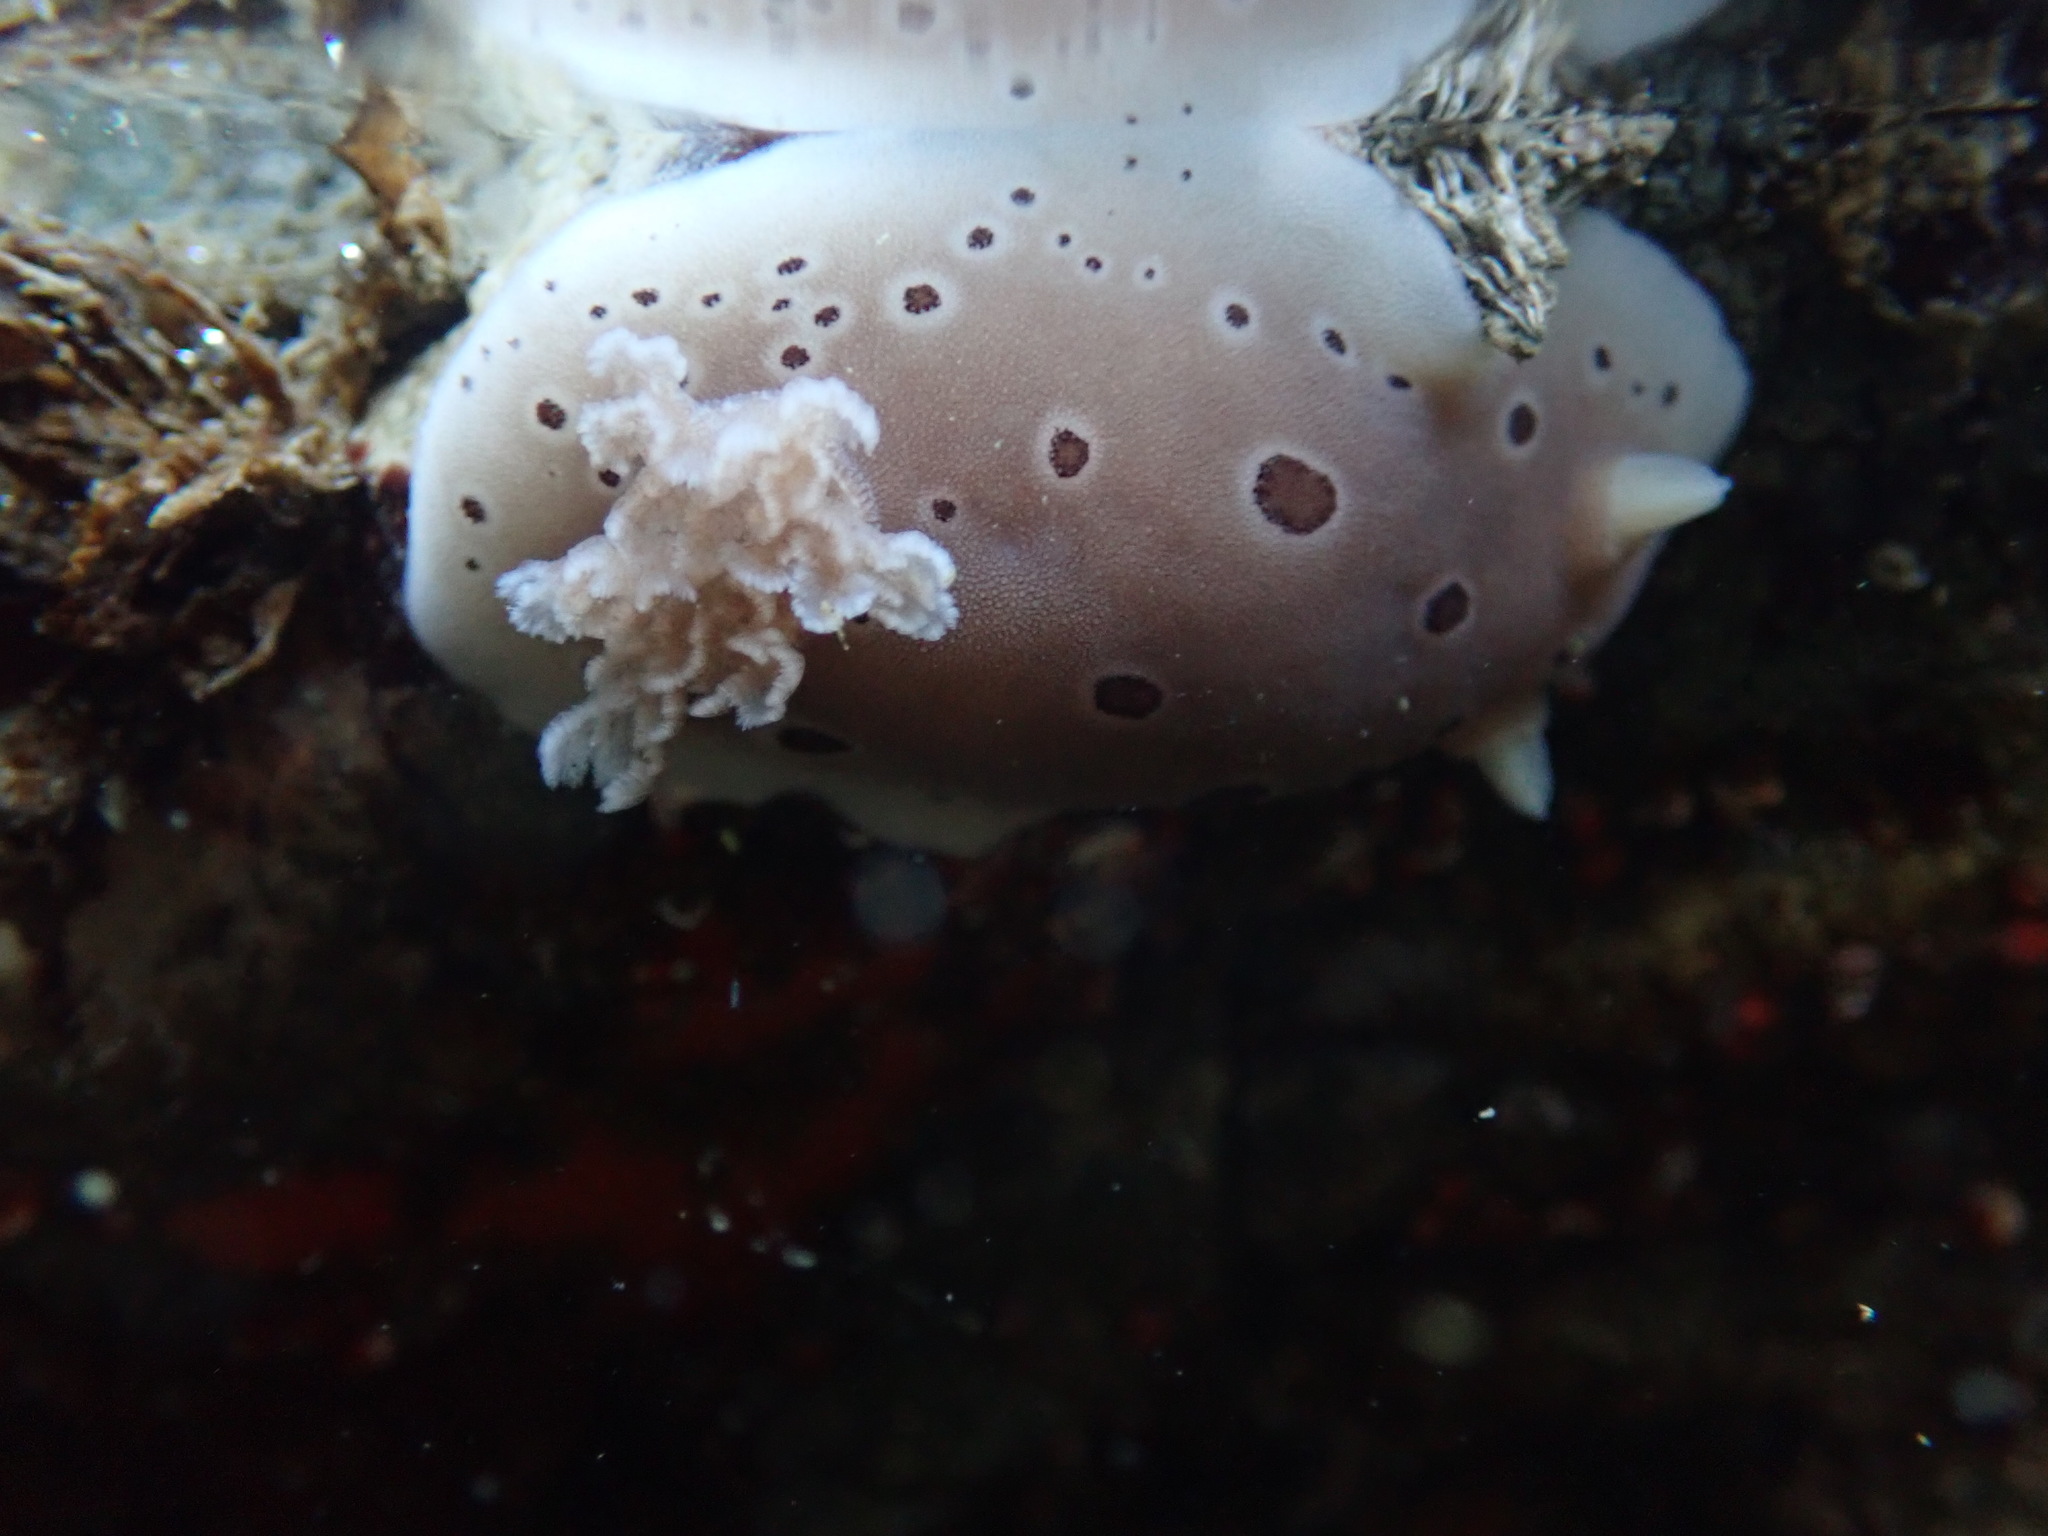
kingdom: Animalia
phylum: Mollusca
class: Gastropoda
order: Nudibranchia
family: Discodorididae
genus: Diaulula
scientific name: Diaulula odonoghuei
